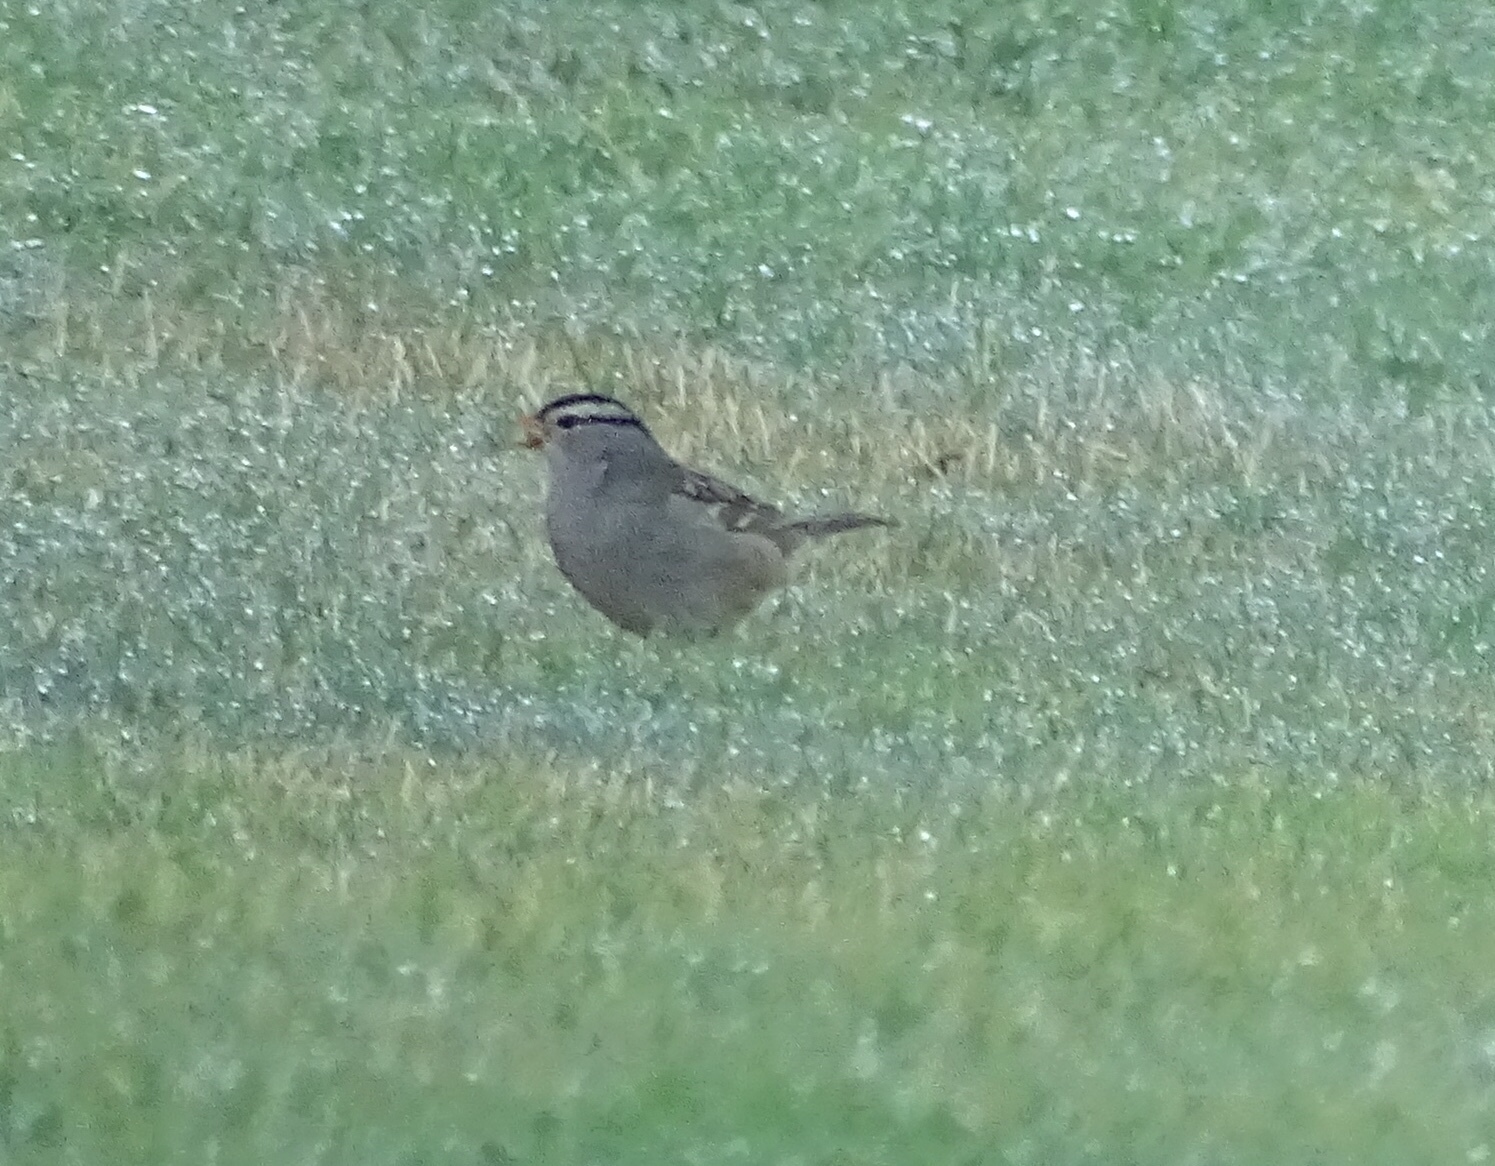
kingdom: Animalia
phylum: Chordata
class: Aves
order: Passeriformes
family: Passerellidae
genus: Zonotrichia
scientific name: Zonotrichia leucophrys
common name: White-crowned sparrow
